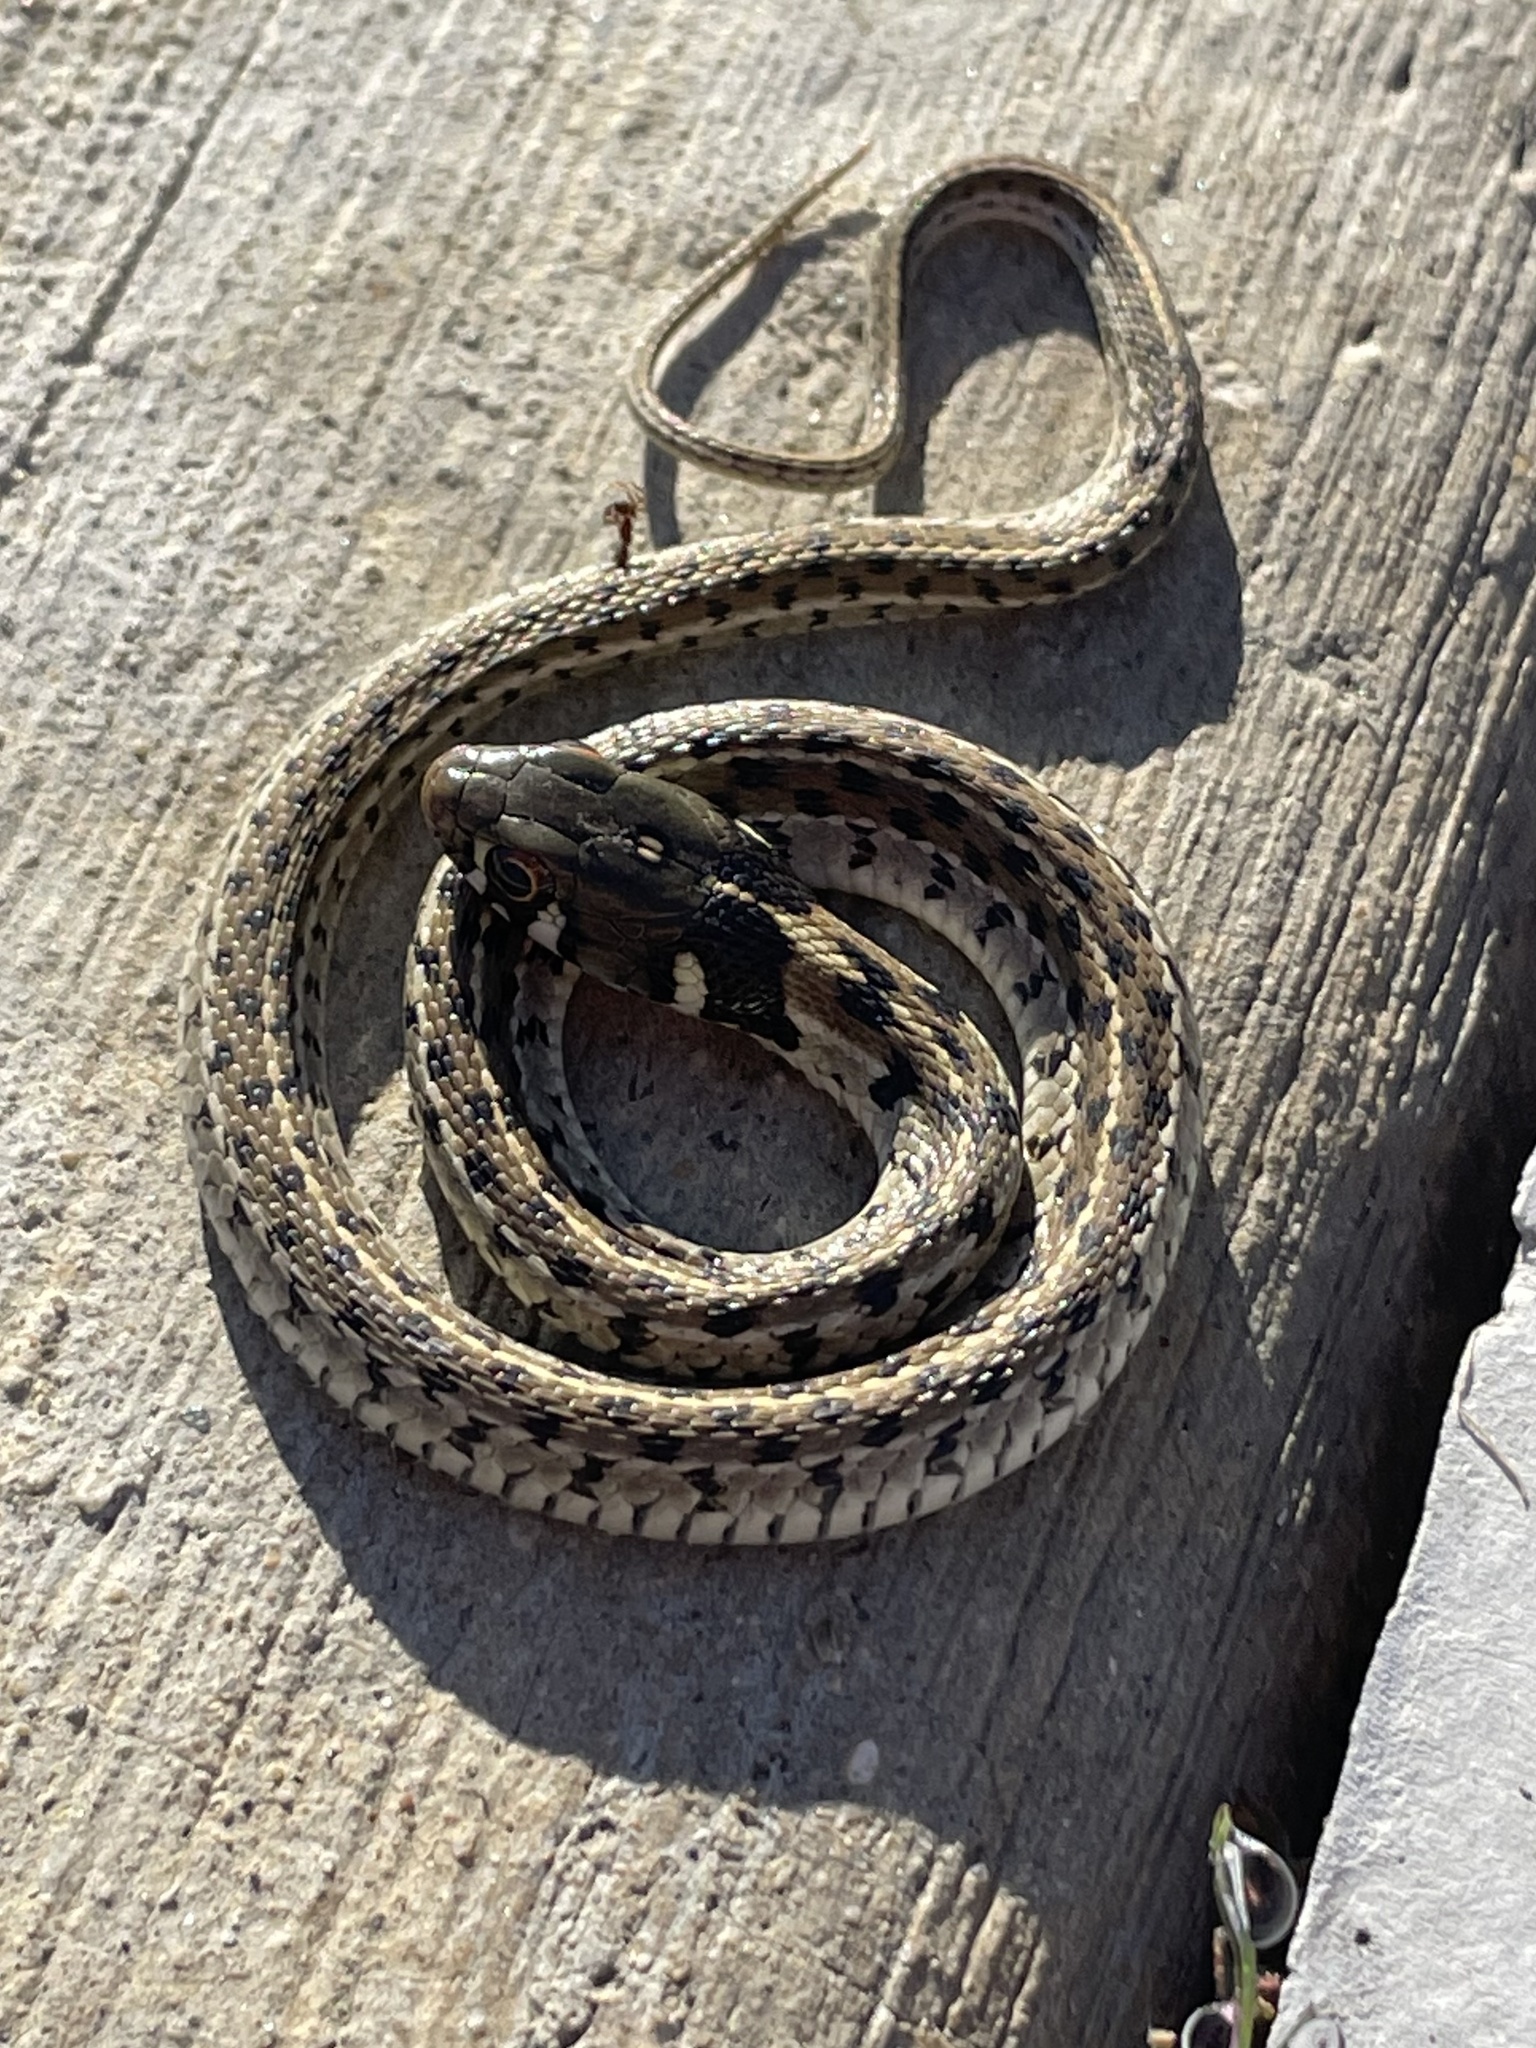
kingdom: Animalia
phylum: Chordata
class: Squamata
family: Colubridae
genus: Thamnophis
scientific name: Thamnophis marcianus
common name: Checkered garter snake
